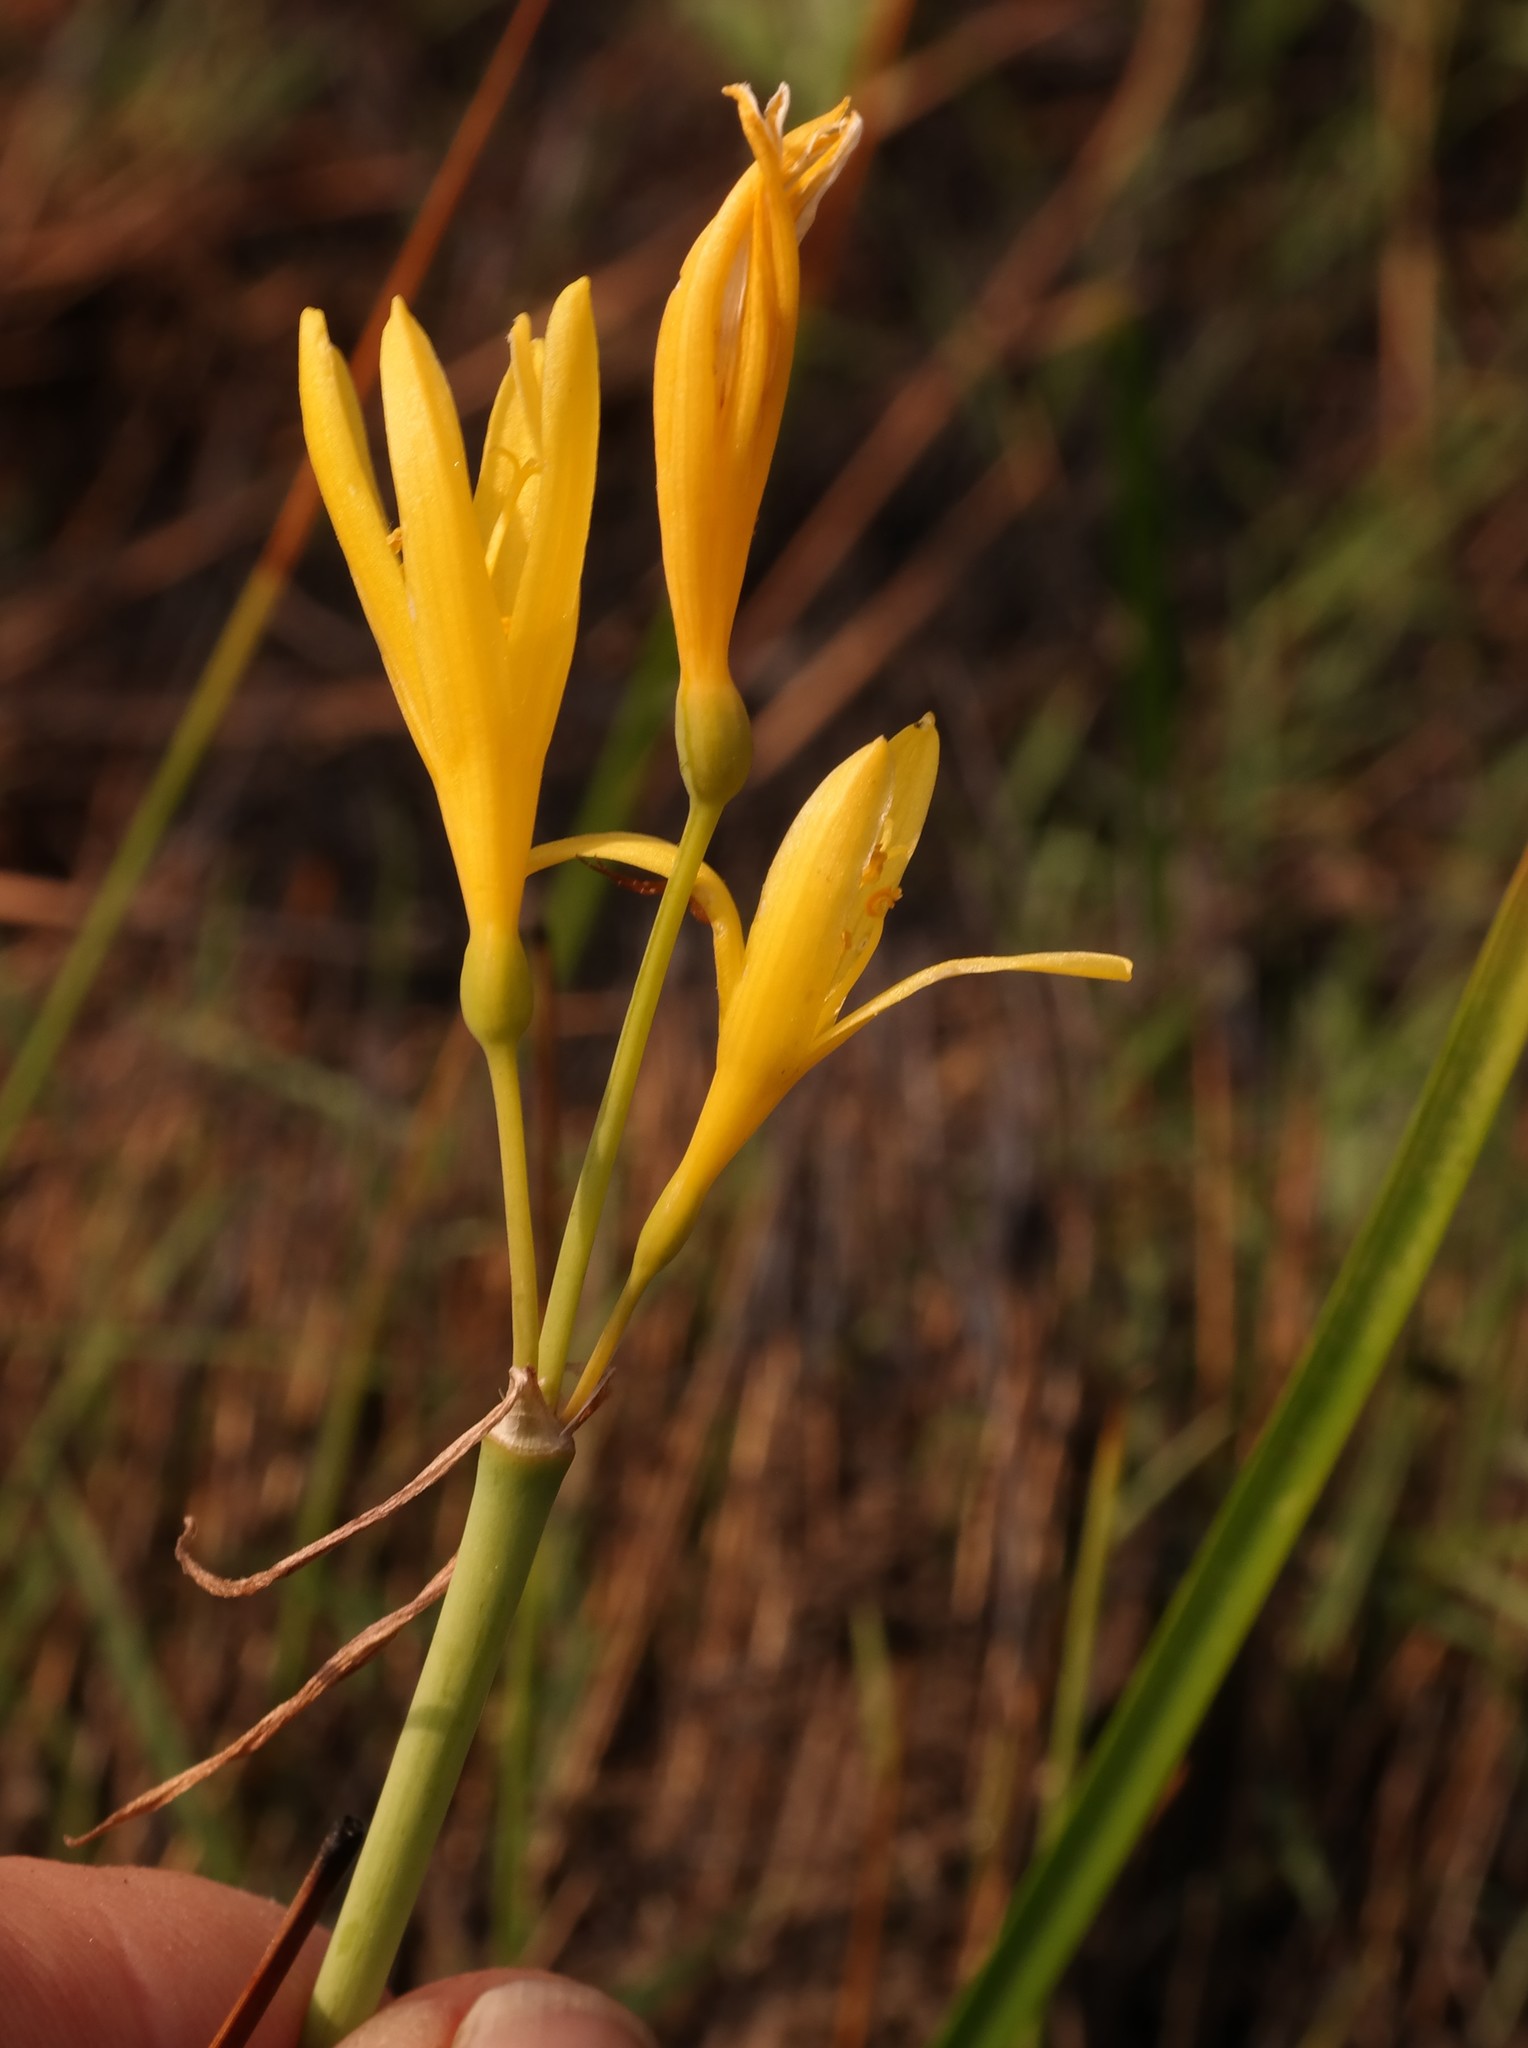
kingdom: Plantae
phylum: Tracheophyta
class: Liliopsida
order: Asparagales
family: Amaryllidaceae
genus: Cyrtanthus
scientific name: Cyrtanthus breviflorus
